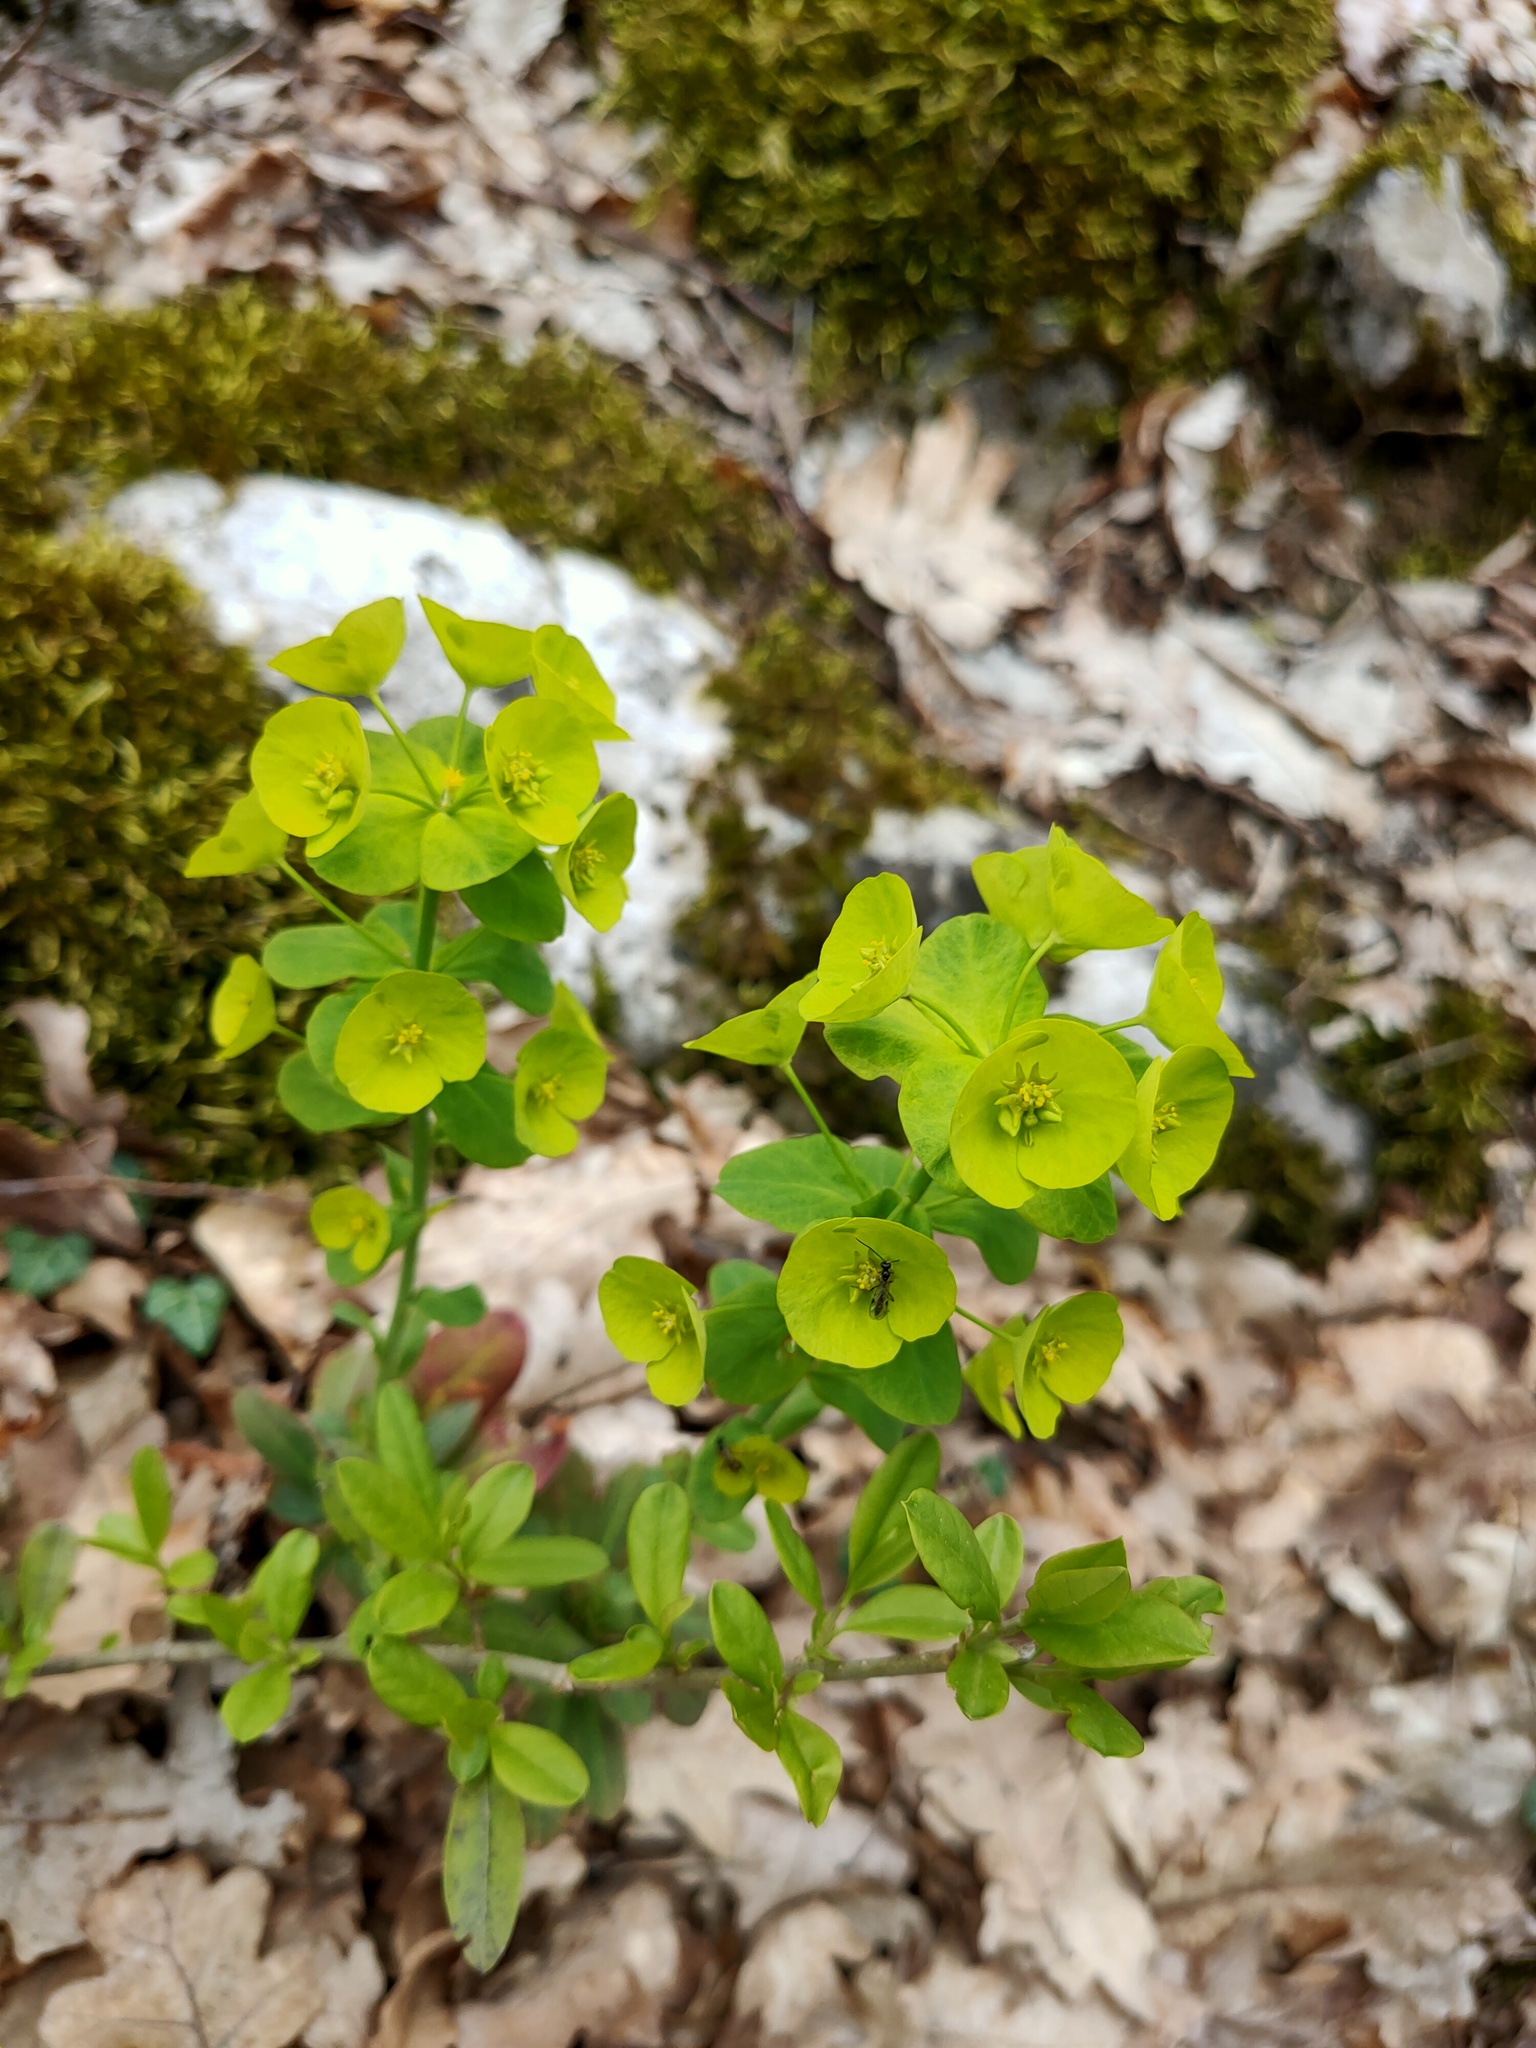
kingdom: Plantae
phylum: Tracheophyta
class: Magnoliopsida
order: Malpighiales
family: Euphorbiaceae
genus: Euphorbia
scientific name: Euphorbia amygdaloides
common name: Wood spurge
